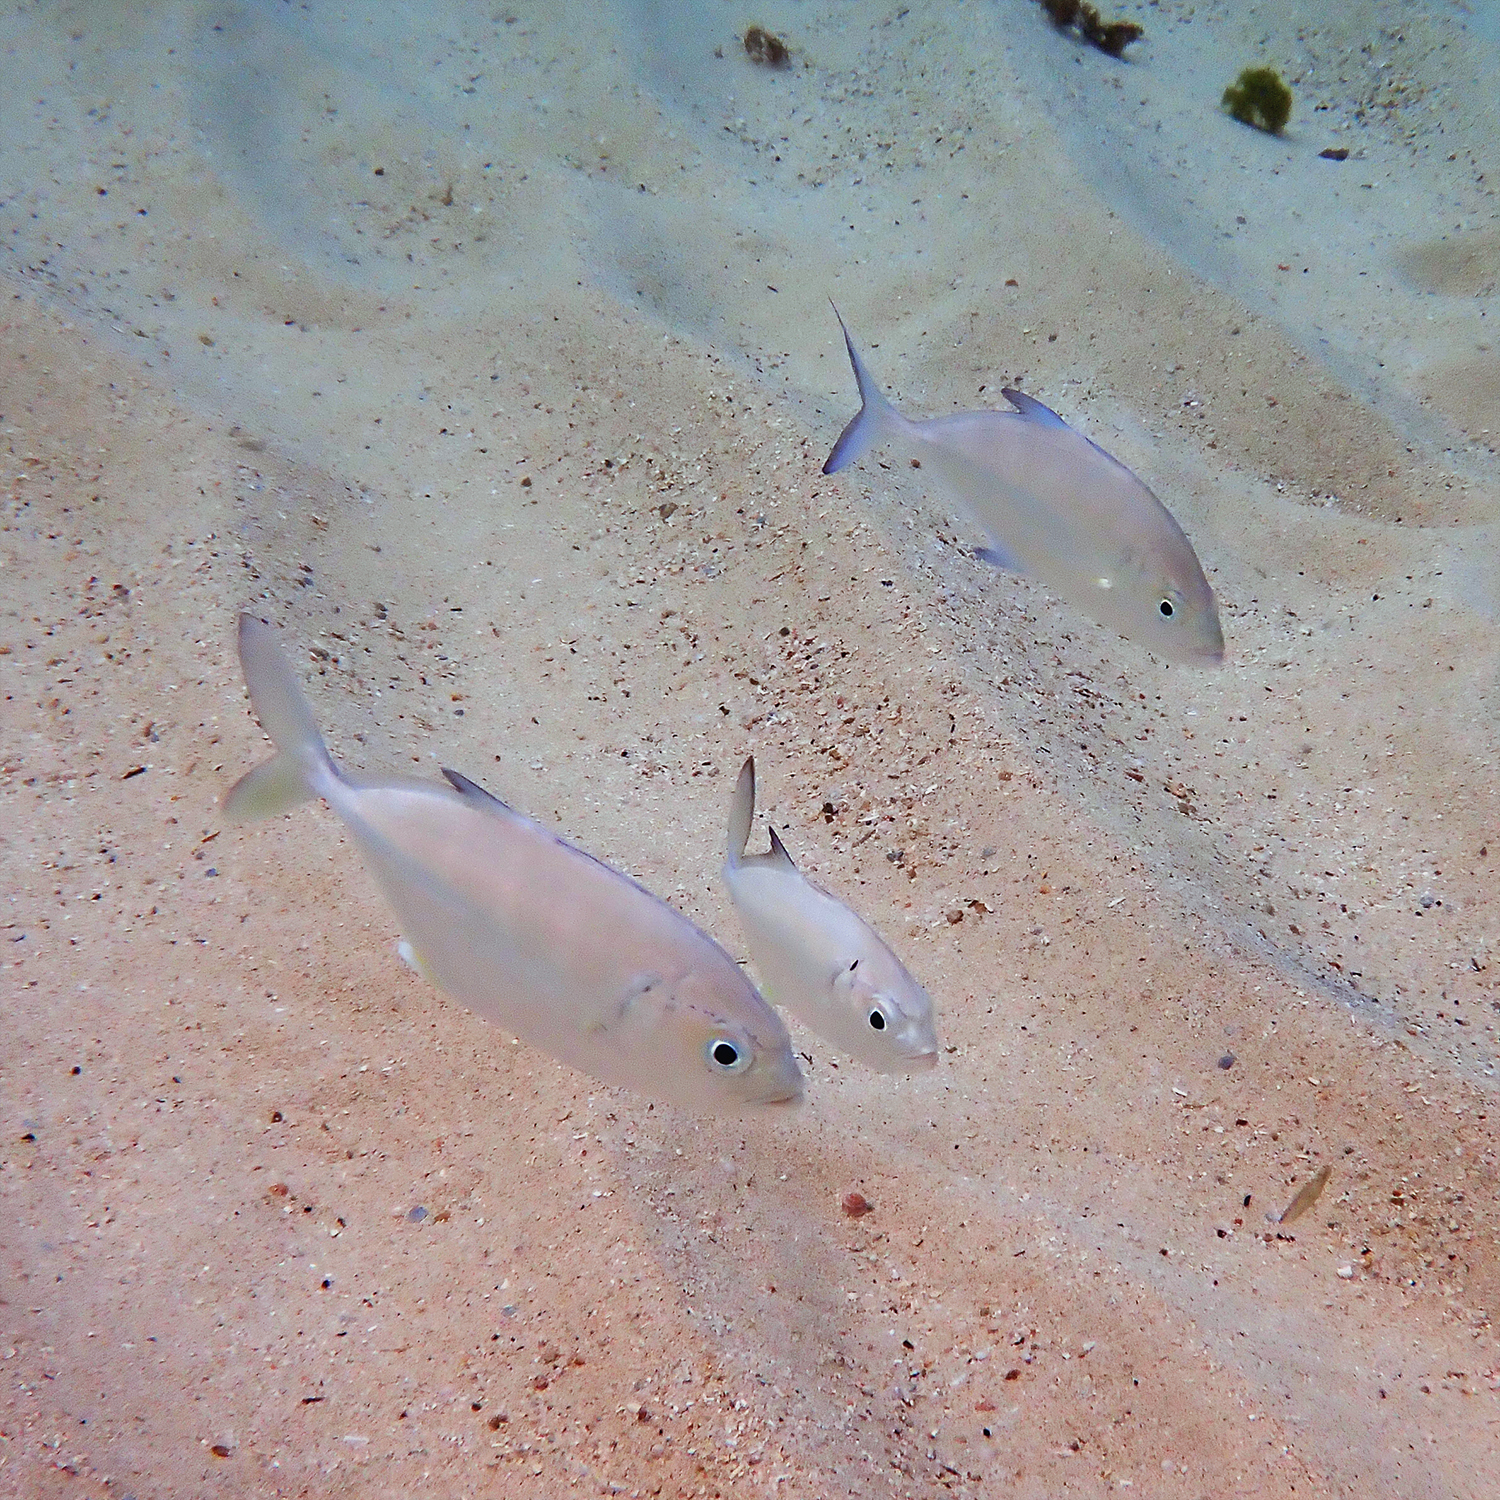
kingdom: Animalia
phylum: Chordata
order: Perciformes
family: Carangidae
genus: Caranx
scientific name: Caranx sexfasciatus
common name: Bigeye trevally
